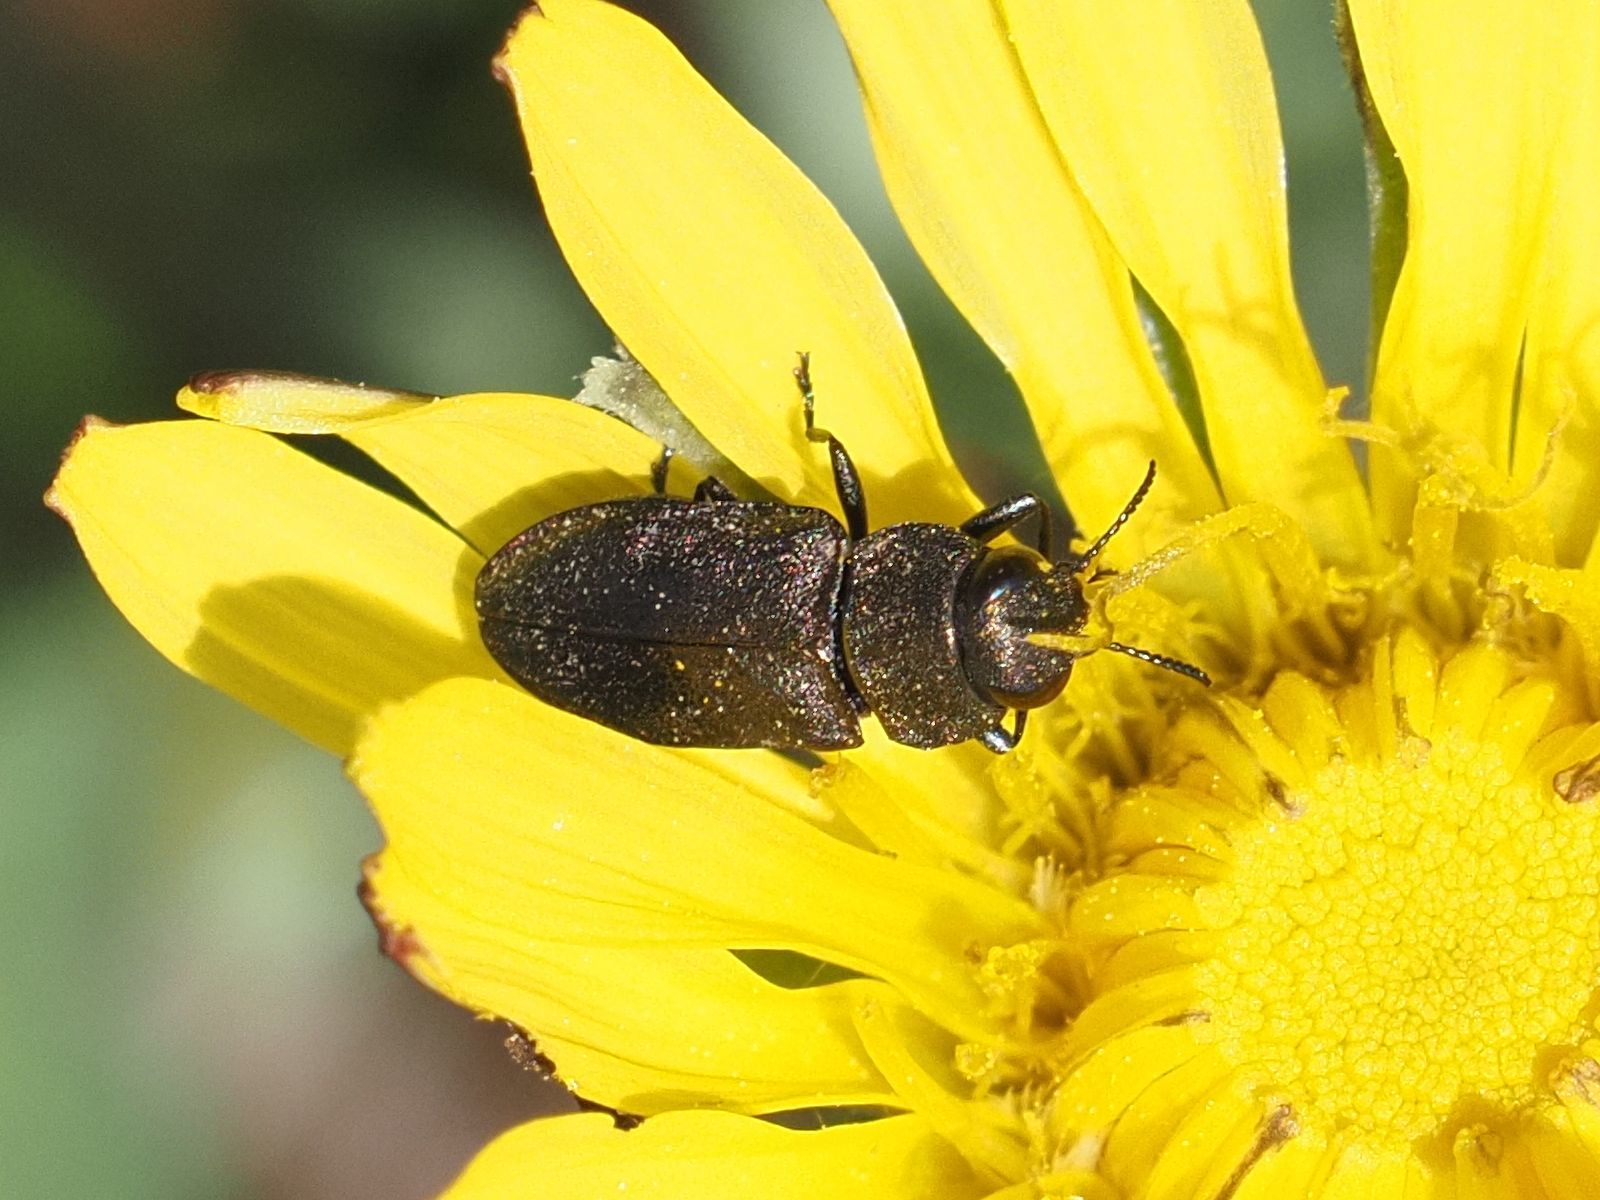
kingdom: Animalia
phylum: Arthropoda
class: Insecta
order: Coleoptera
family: Buprestidae
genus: Anthaxia
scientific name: Anthaxia helvetica
